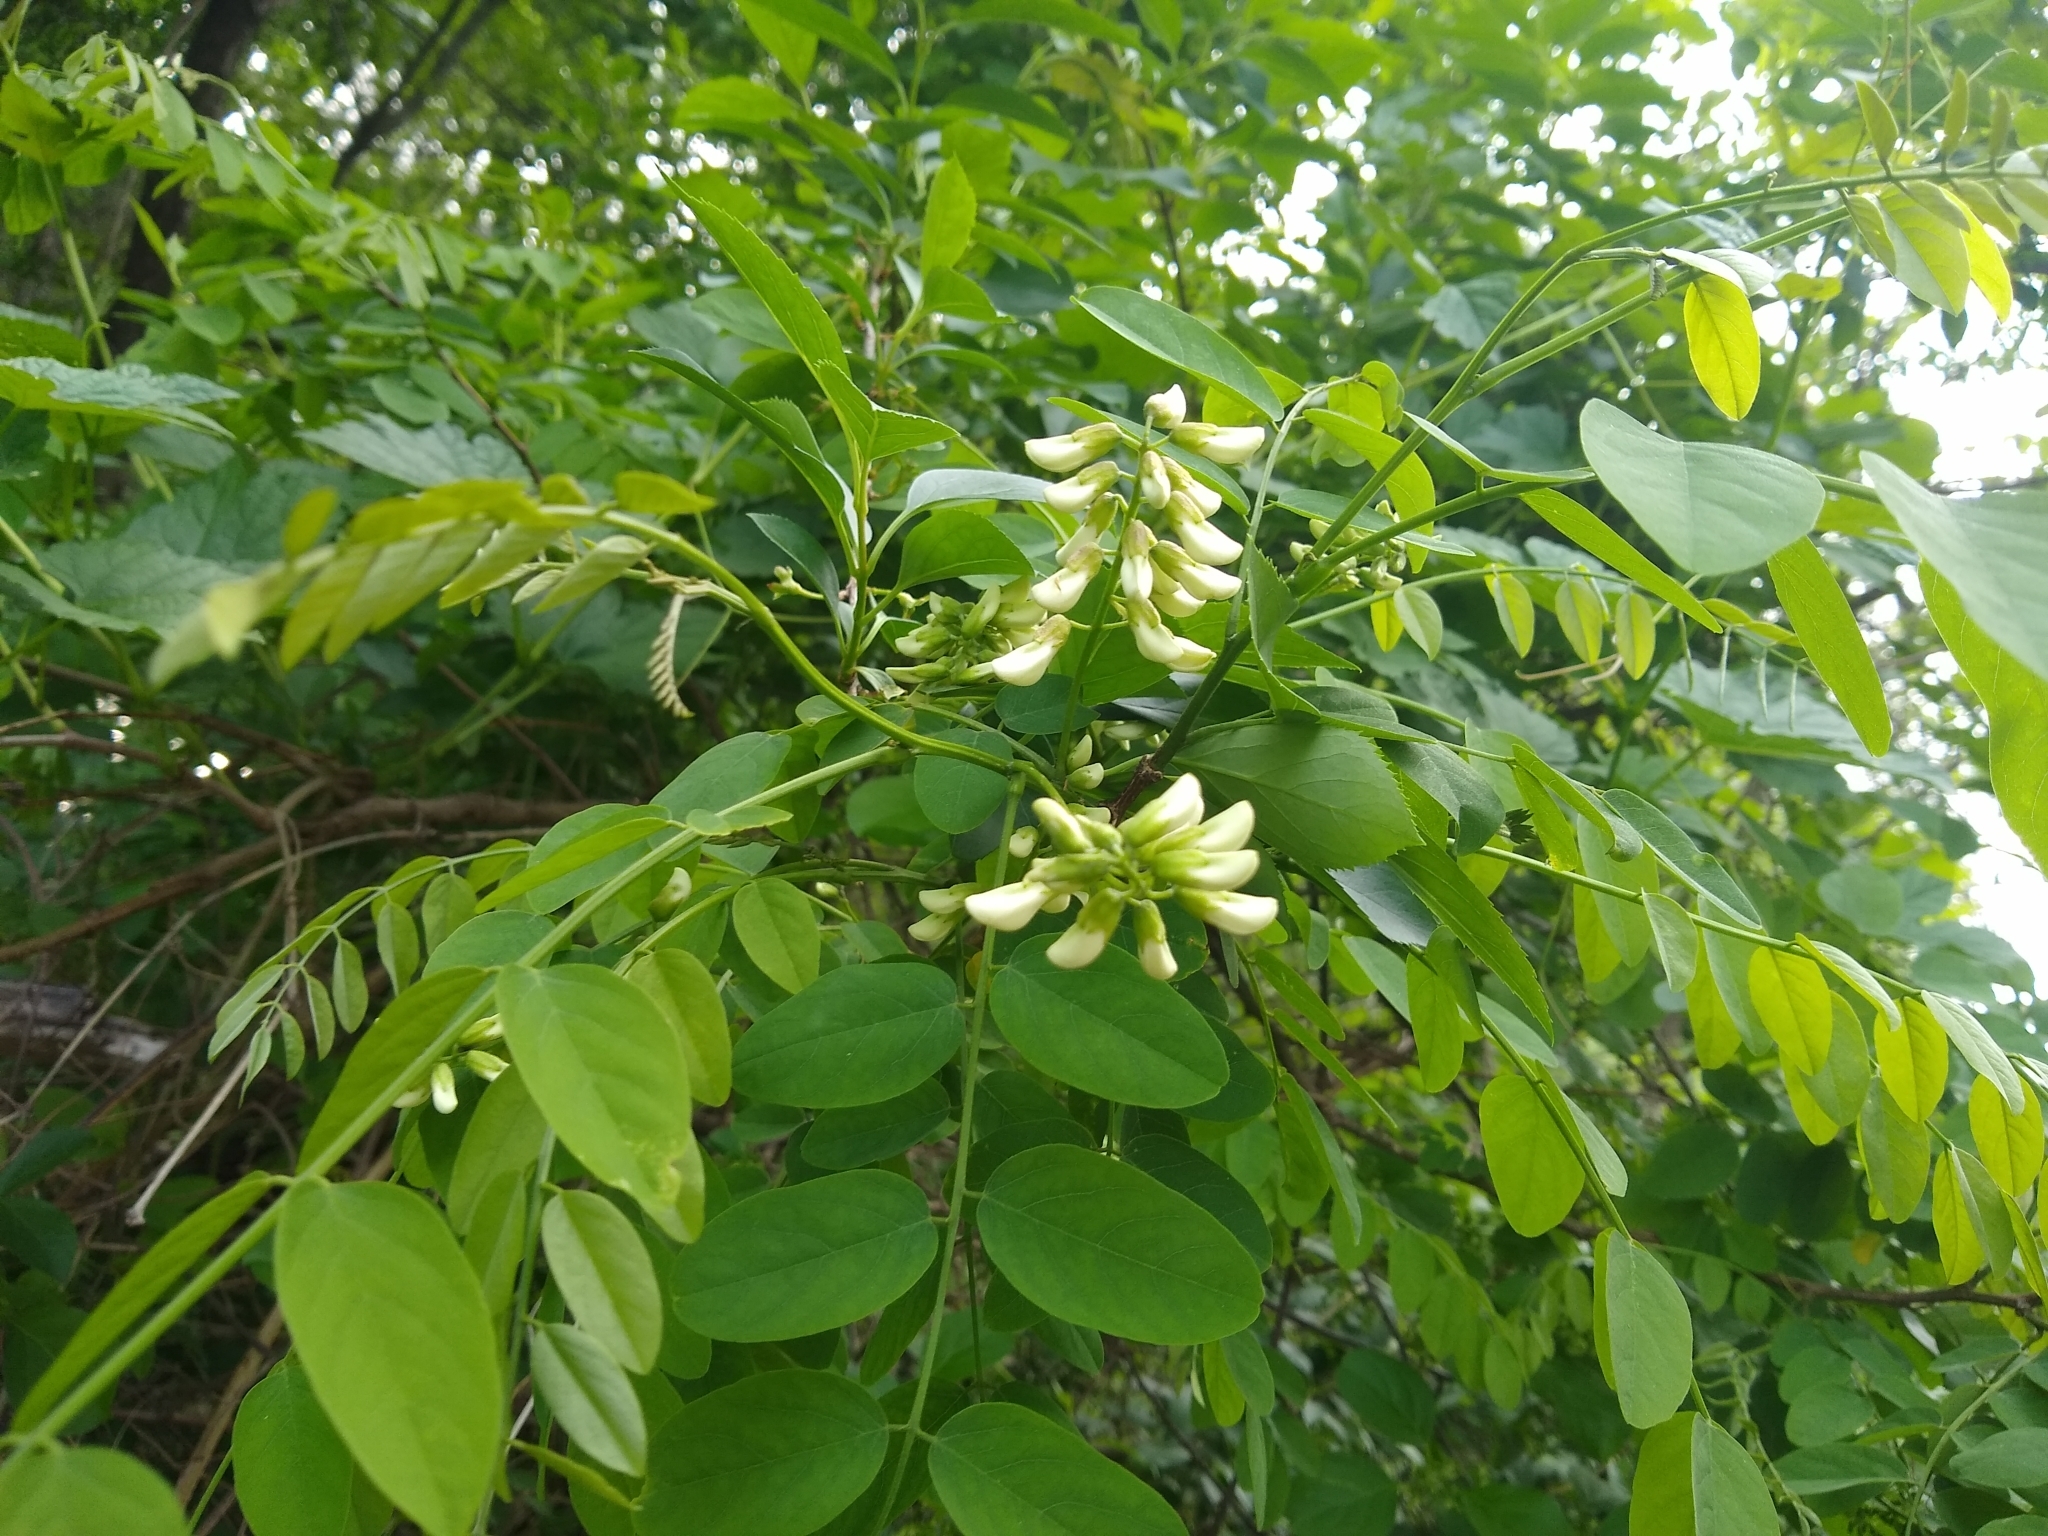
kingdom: Plantae
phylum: Tracheophyta
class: Magnoliopsida
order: Fabales
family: Fabaceae
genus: Robinia
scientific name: Robinia pseudoacacia
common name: Black locust
